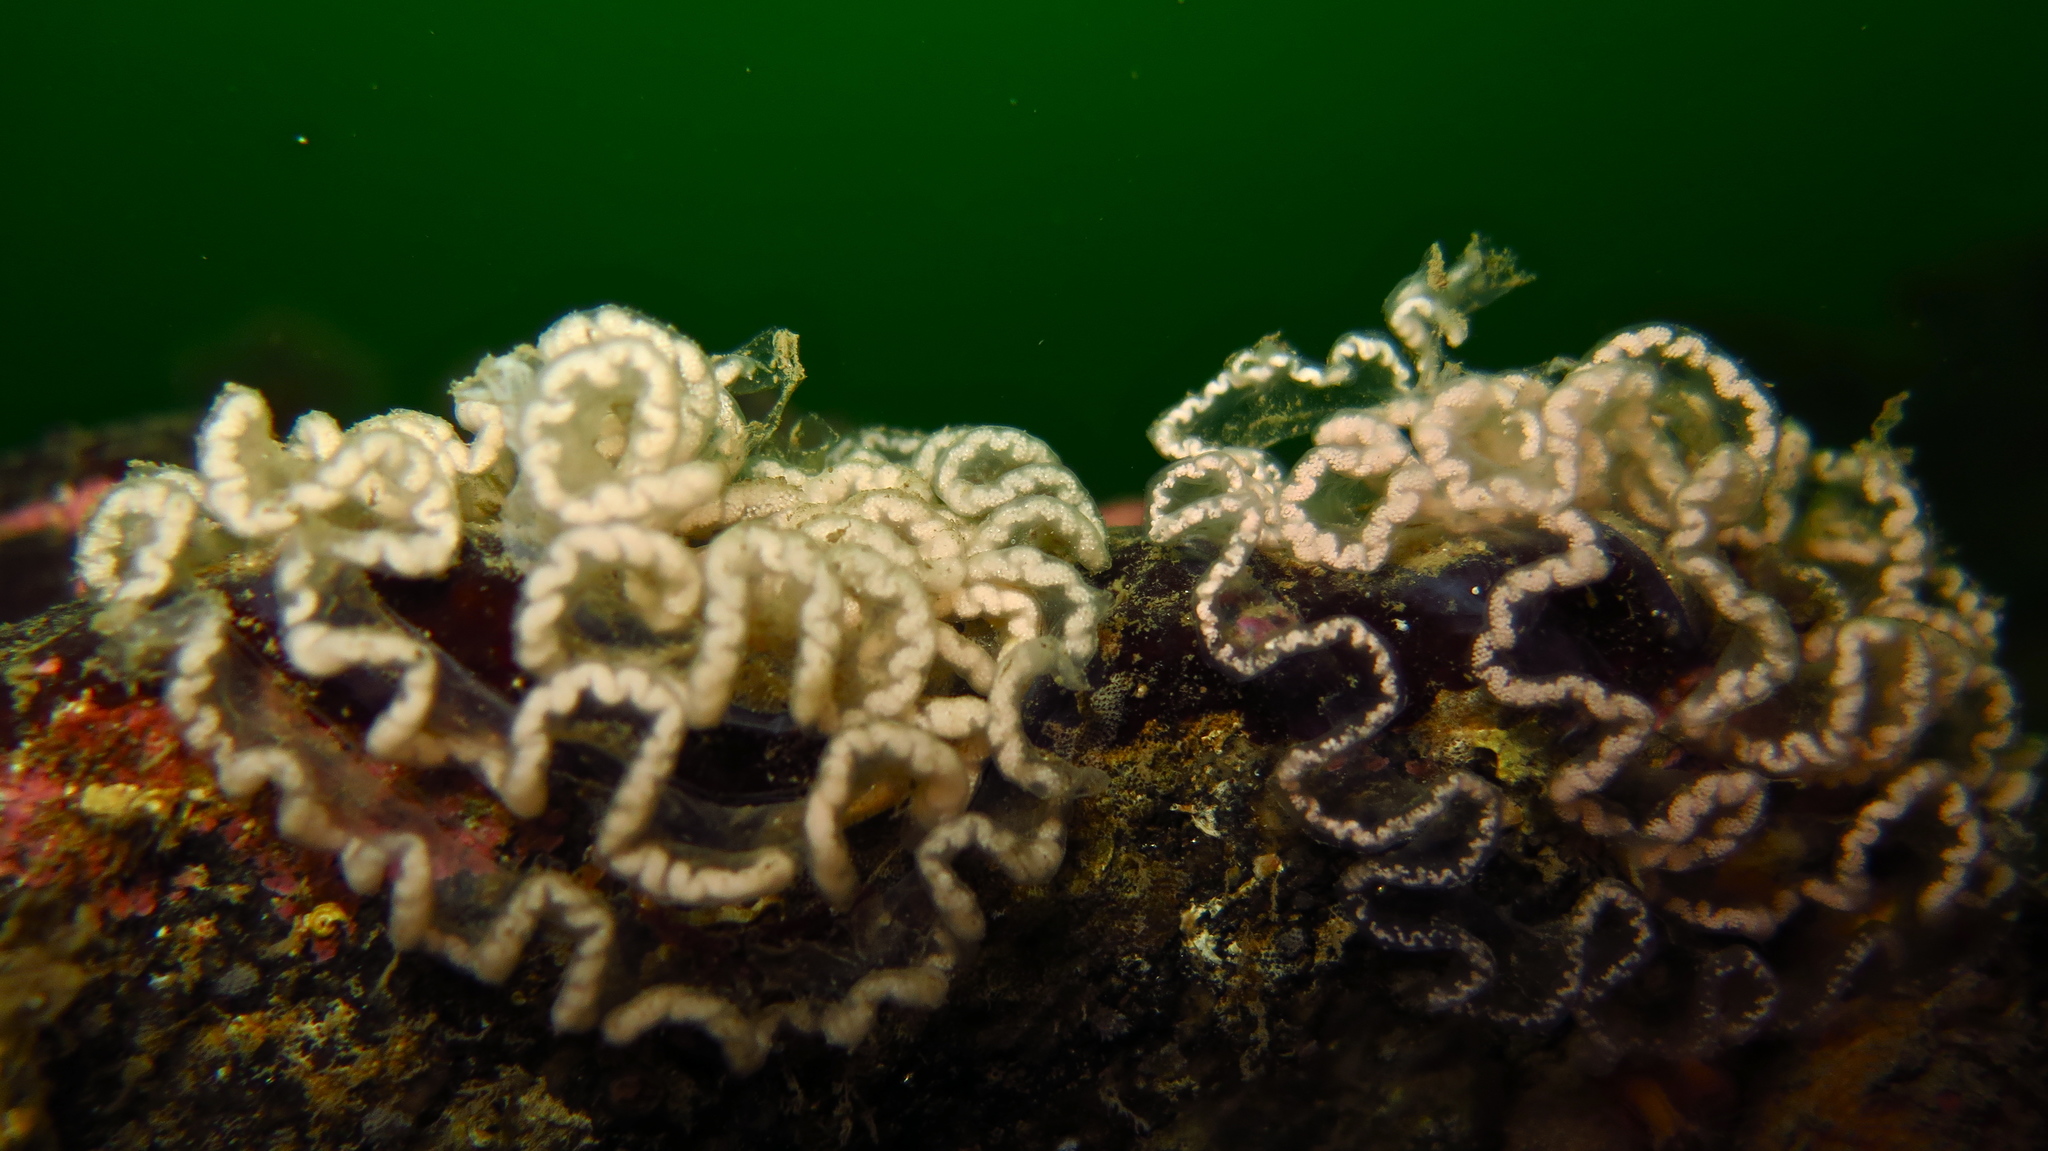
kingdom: Animalia
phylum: Mollusca
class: Gastropoda
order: Nudibranchia
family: Tritoniidae
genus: Tritonia
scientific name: Tritonia hombergii
